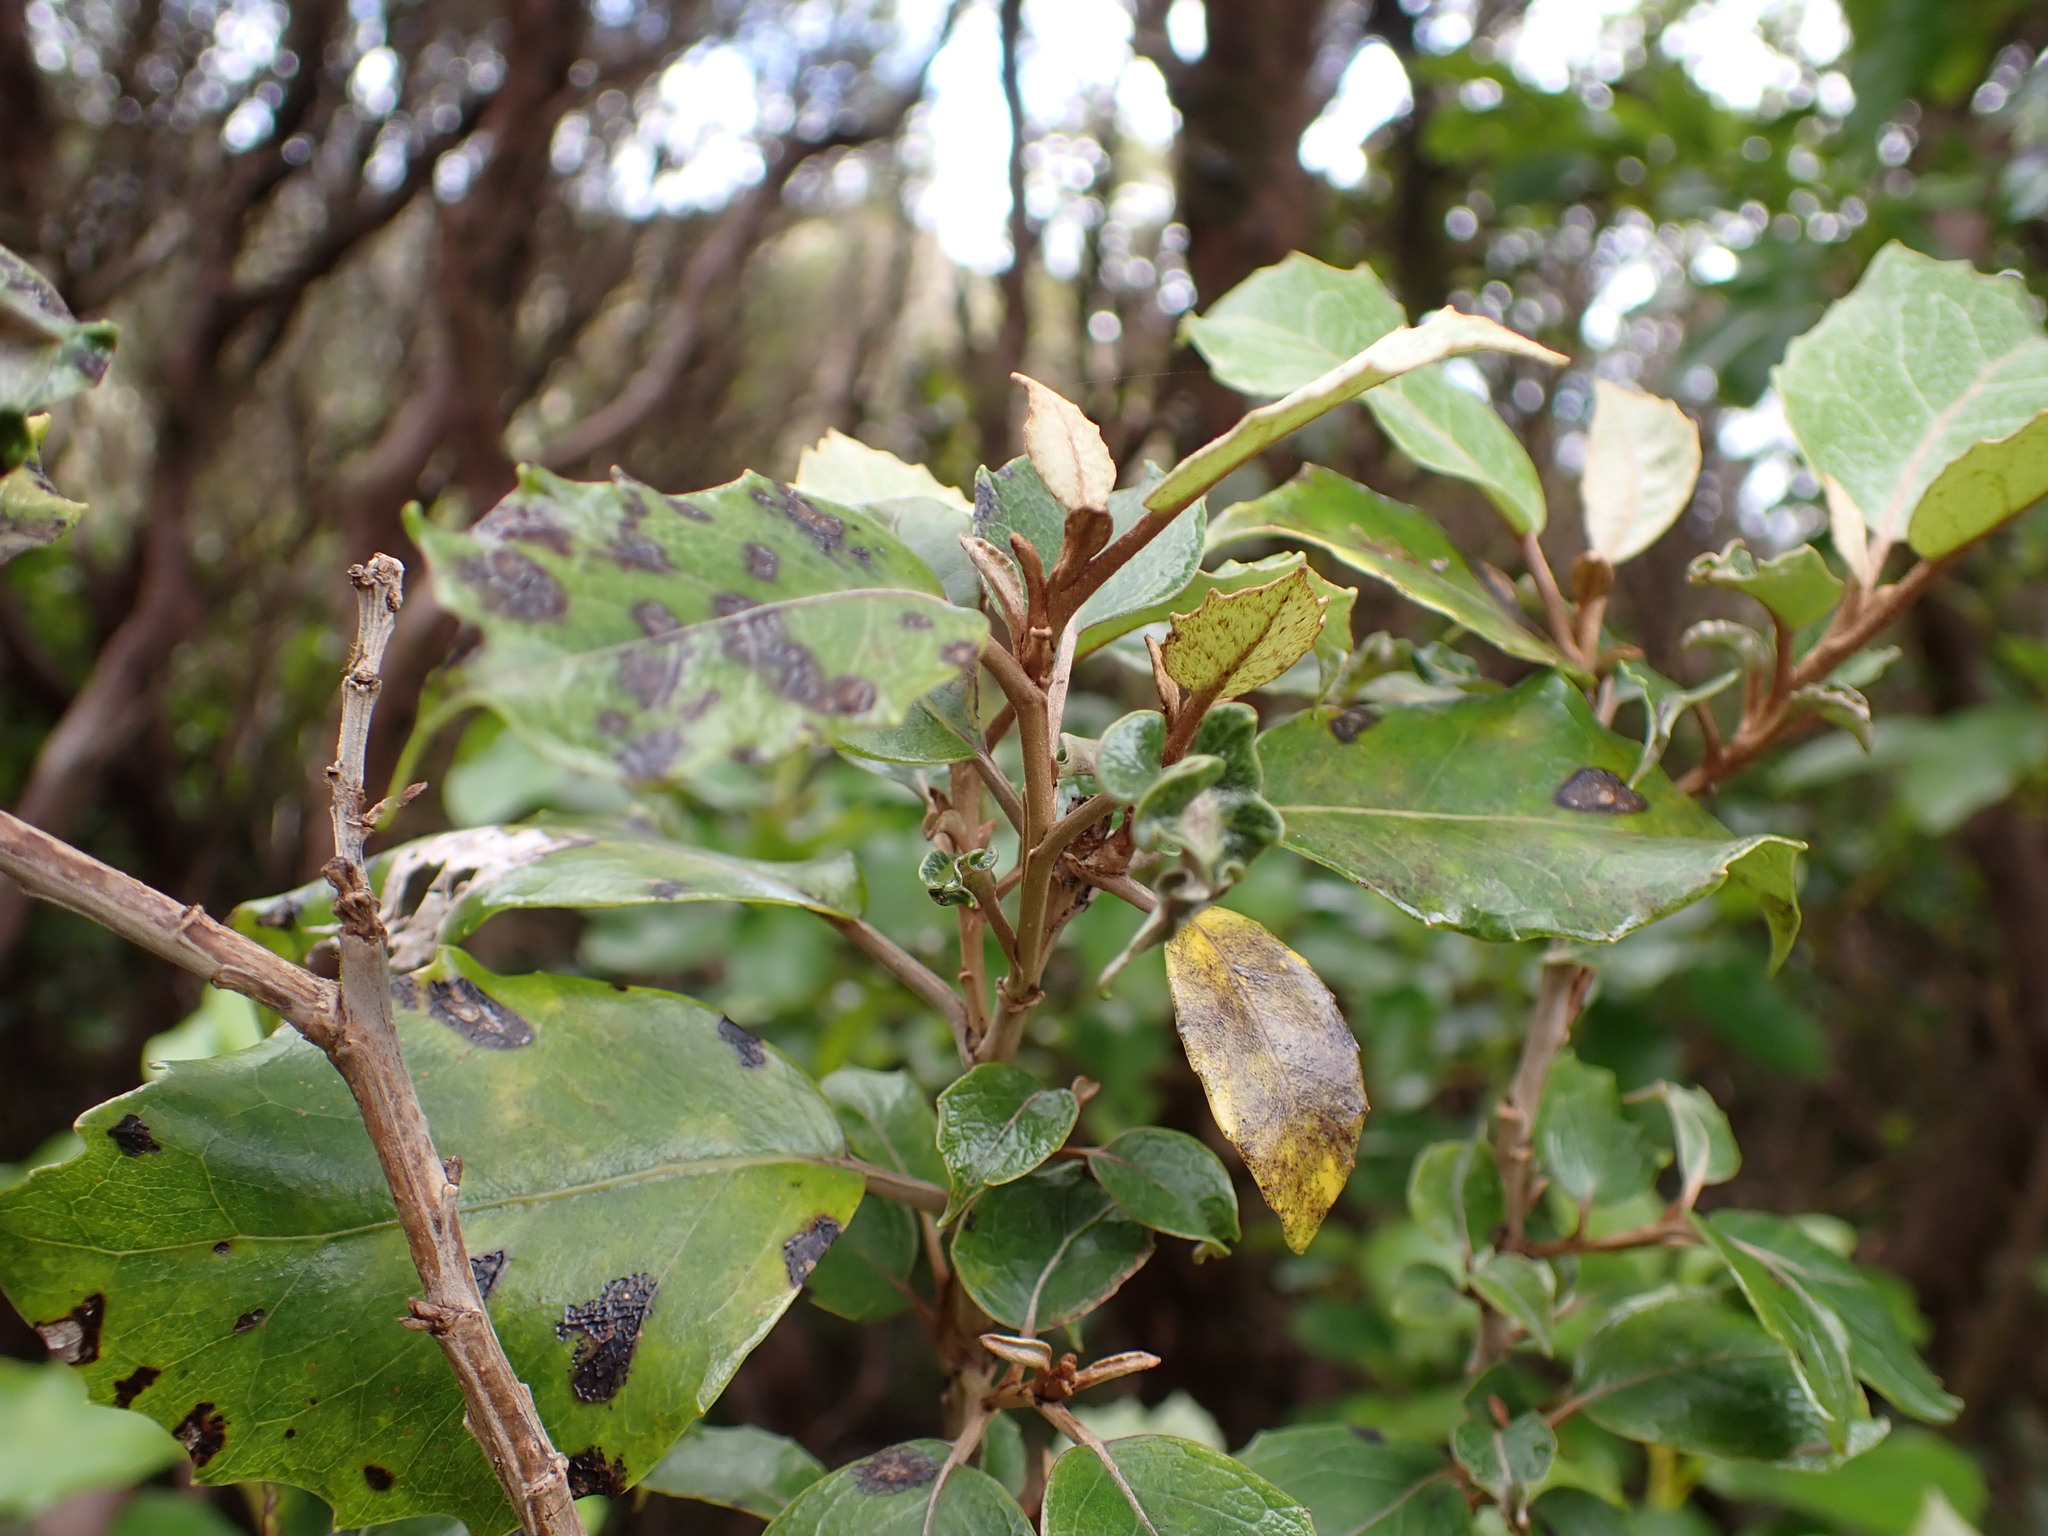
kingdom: Plantae
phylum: Tracheophyta
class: Magnoliopsida
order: Asterales
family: Asteraceae
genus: Olearia
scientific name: Olearia arborescens
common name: Glossy tree daisy
